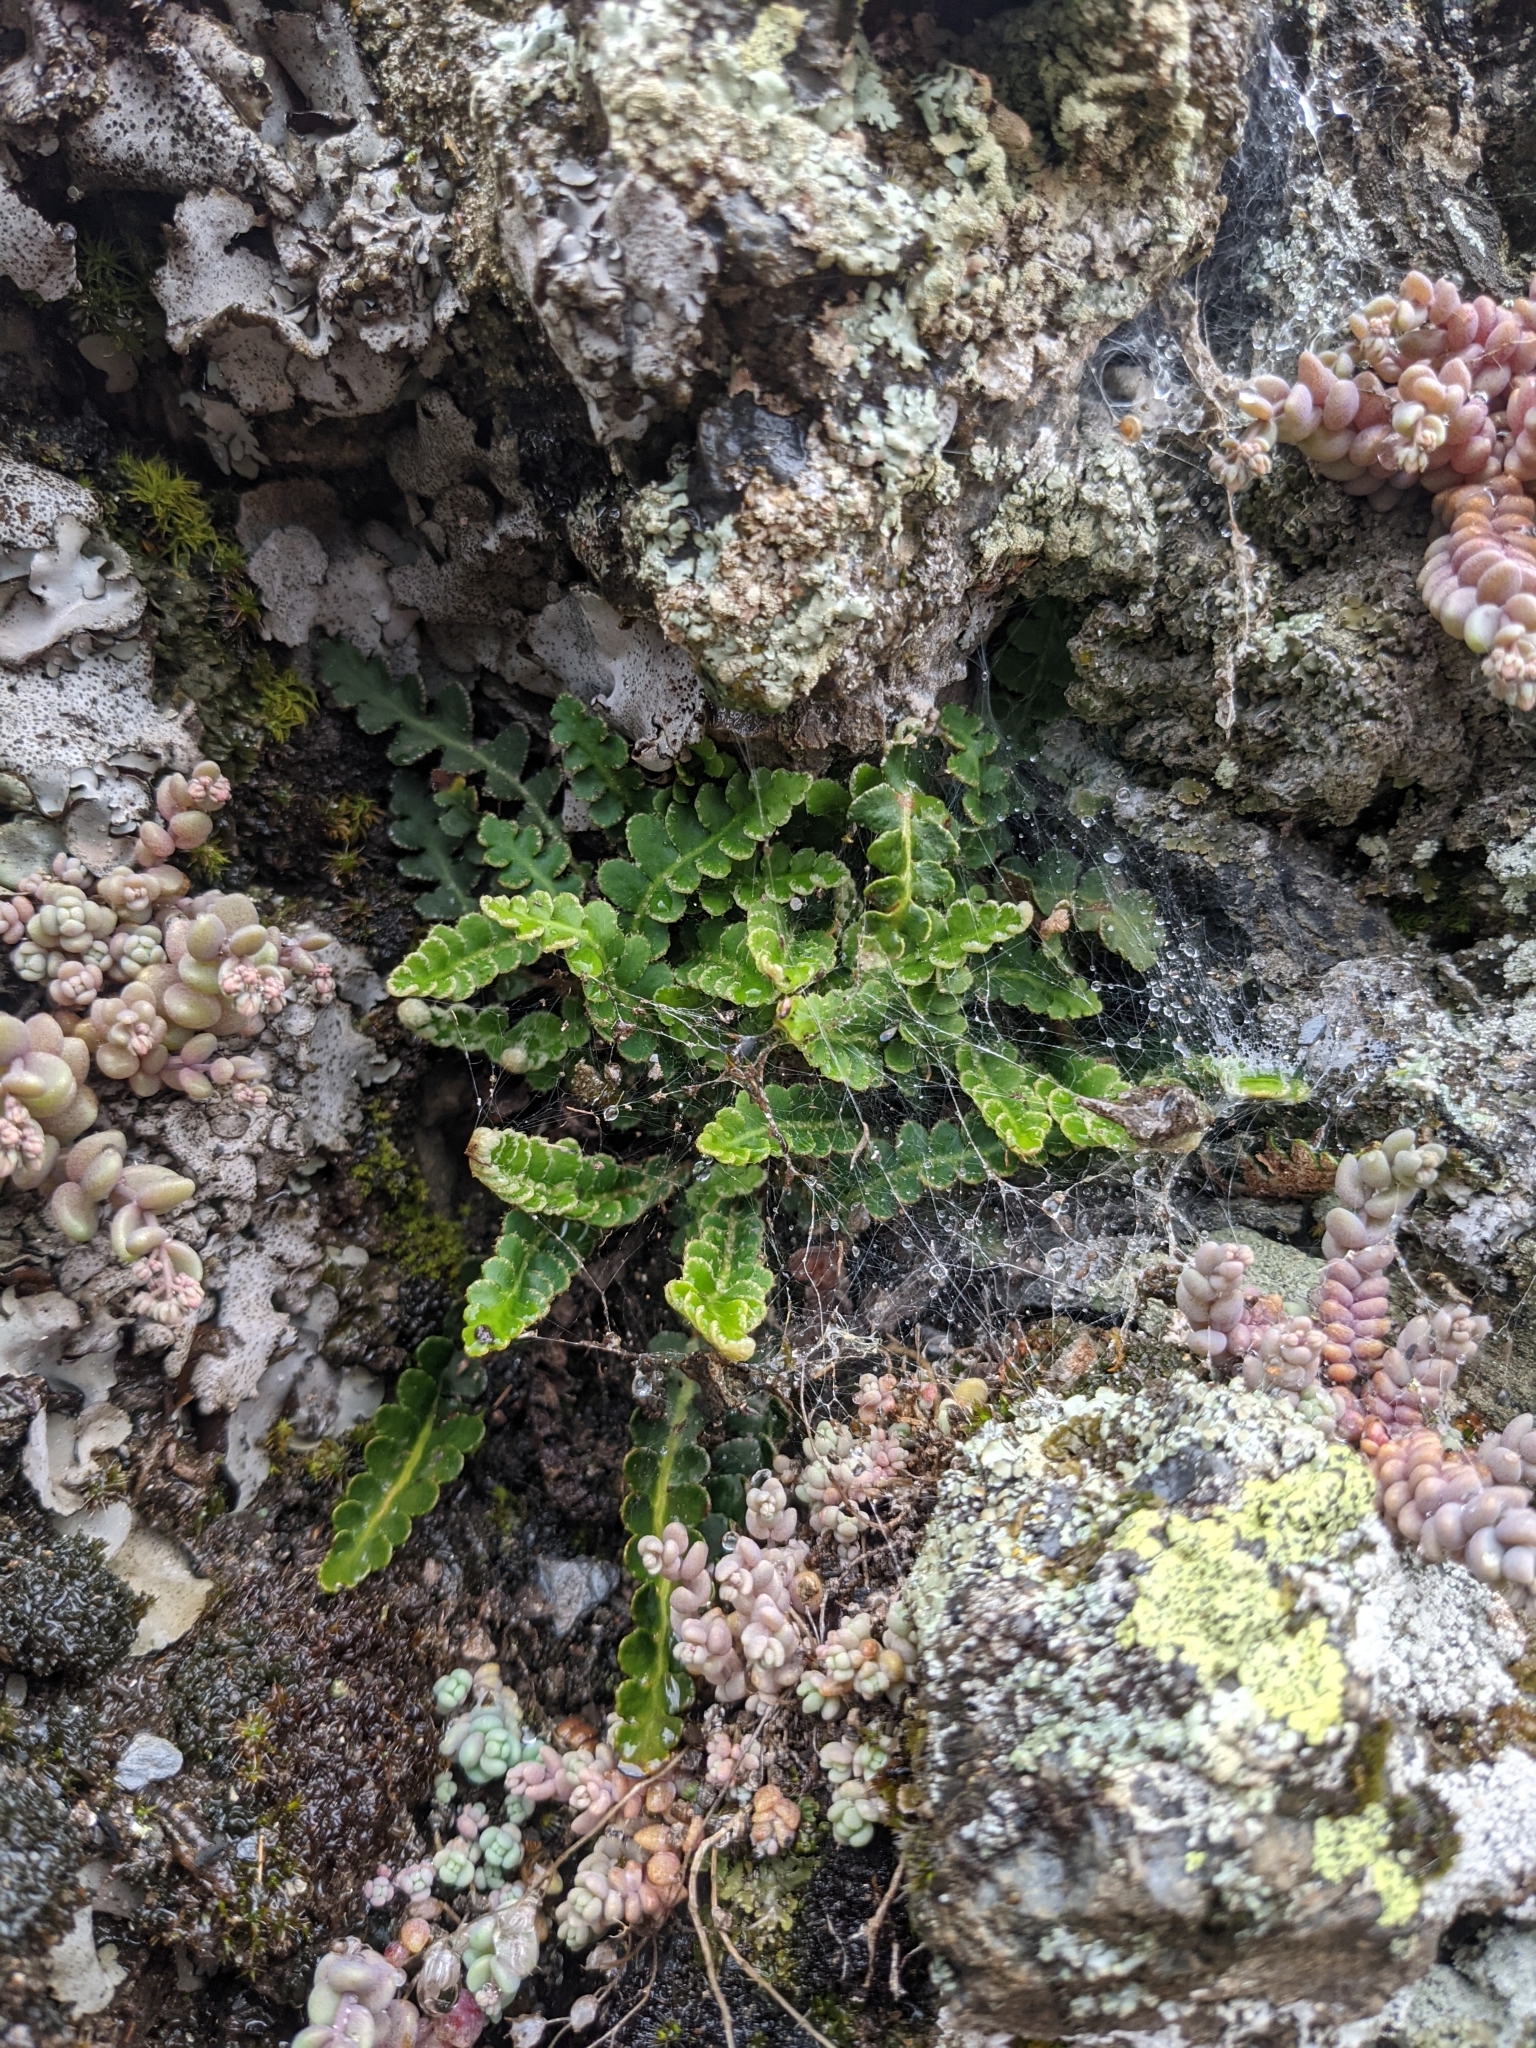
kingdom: Plantae
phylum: Tracheophyta
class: Polypodiopsida
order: Polypodiales
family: Aspleniaceae
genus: Asplenium
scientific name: Asplenium ceterach
